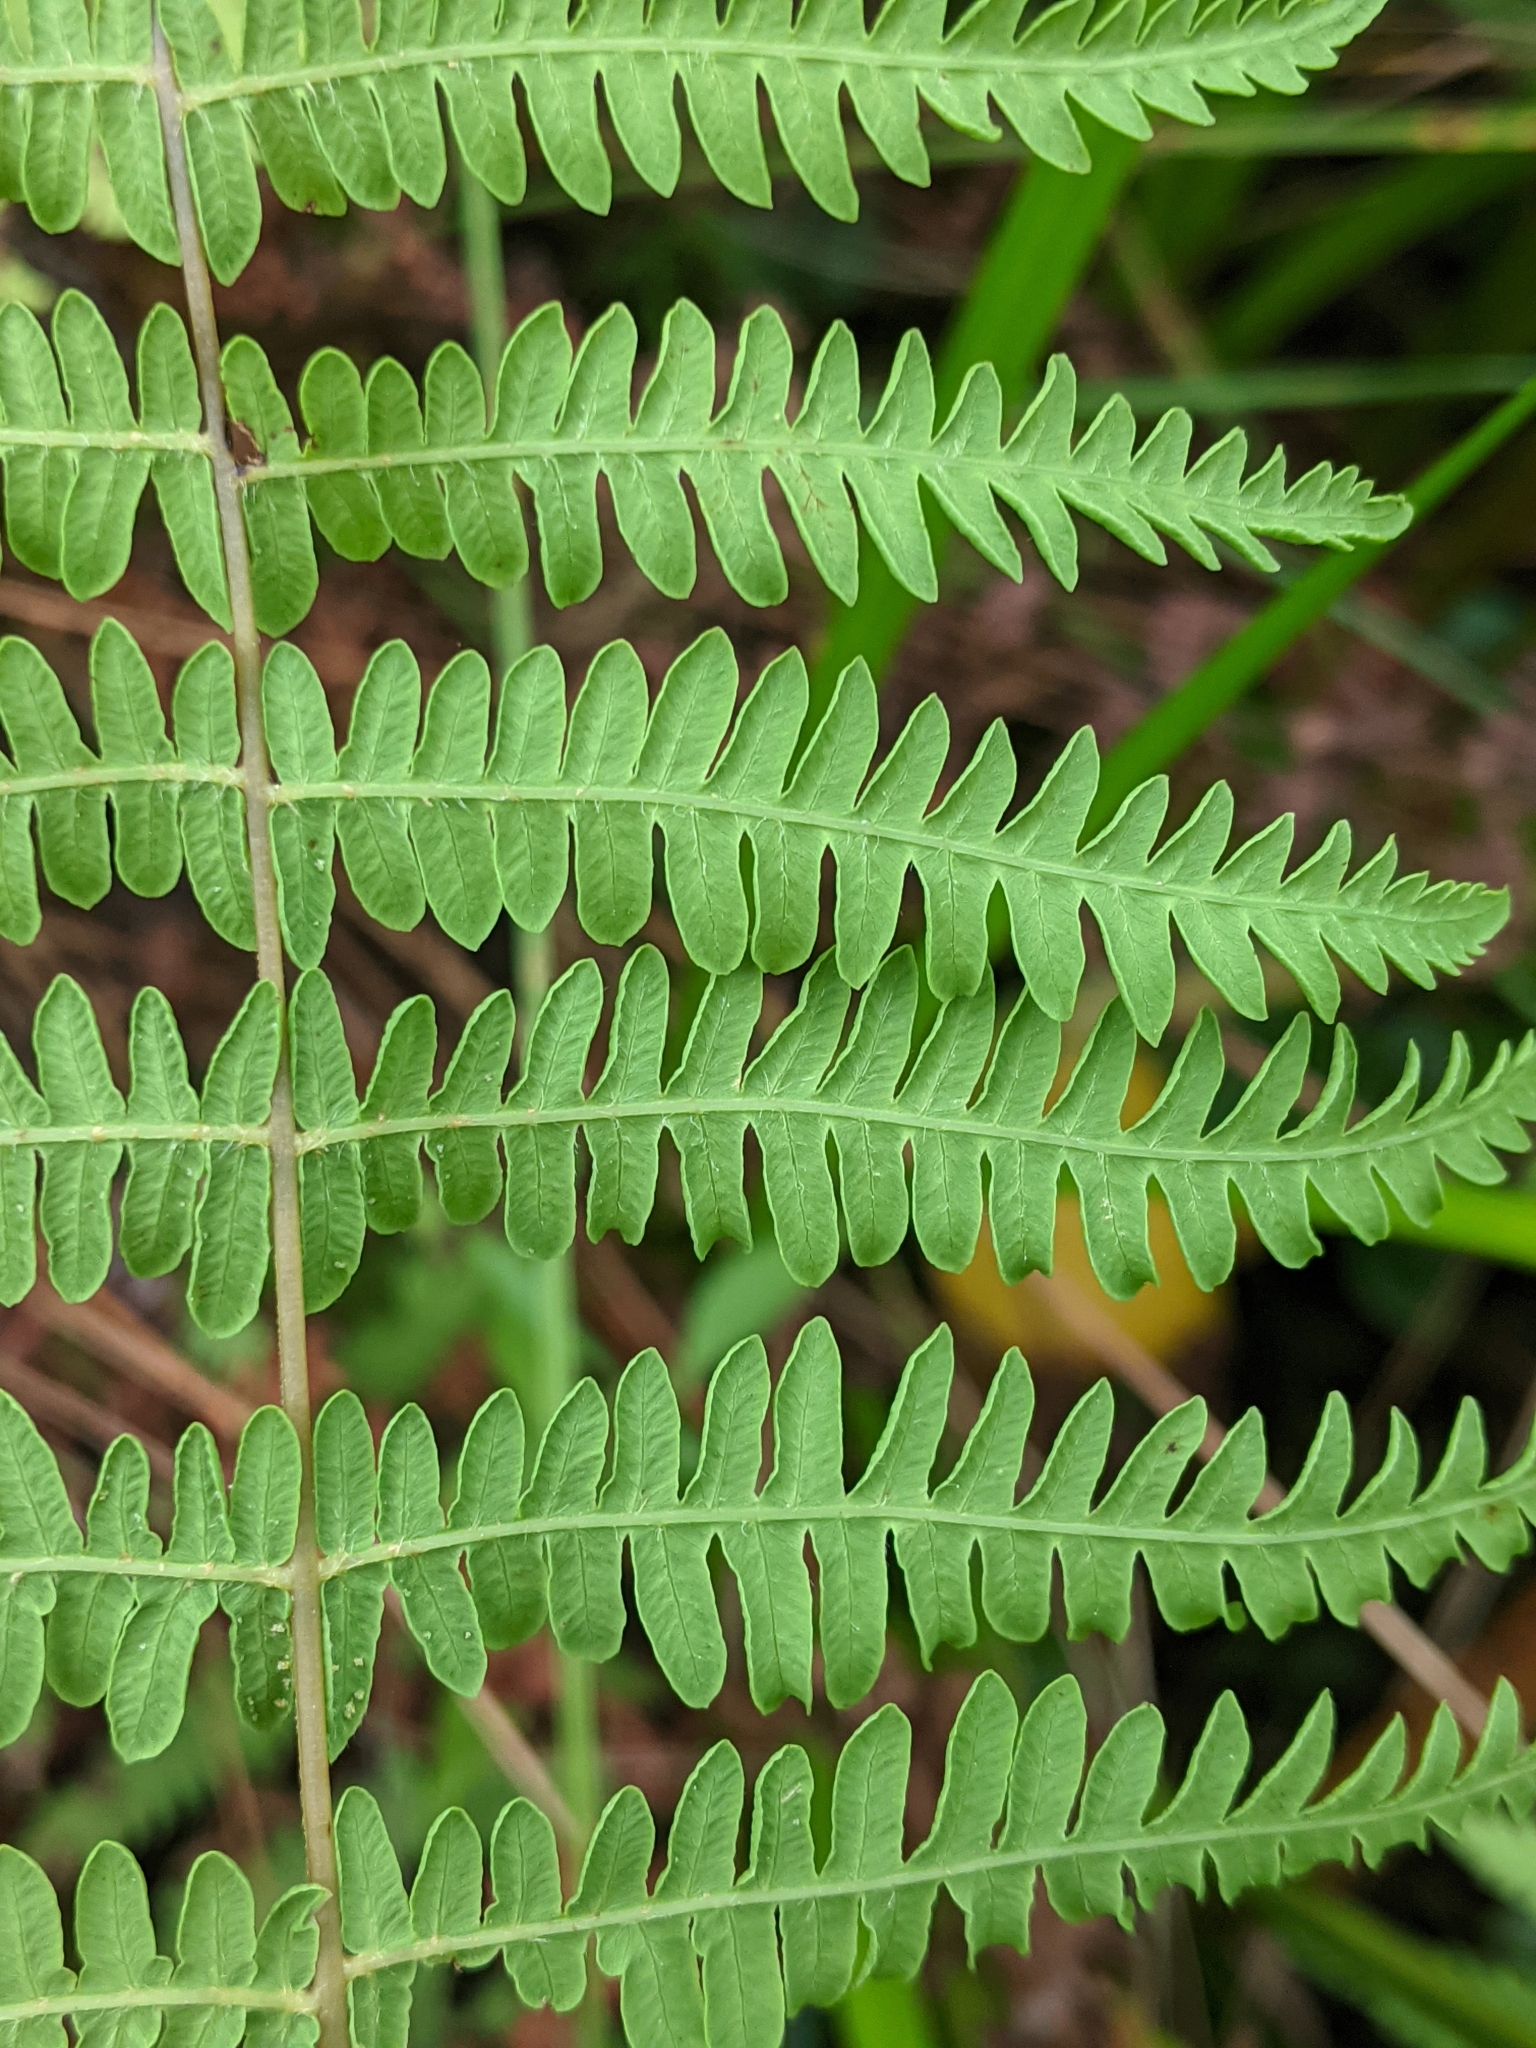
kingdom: Plantae
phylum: Tracheophyta
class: Polypodiopsida
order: Polypodiales
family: Thelypteridaceae
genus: Thelypteris
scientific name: Thelypteris palustris
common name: Marsh fern
